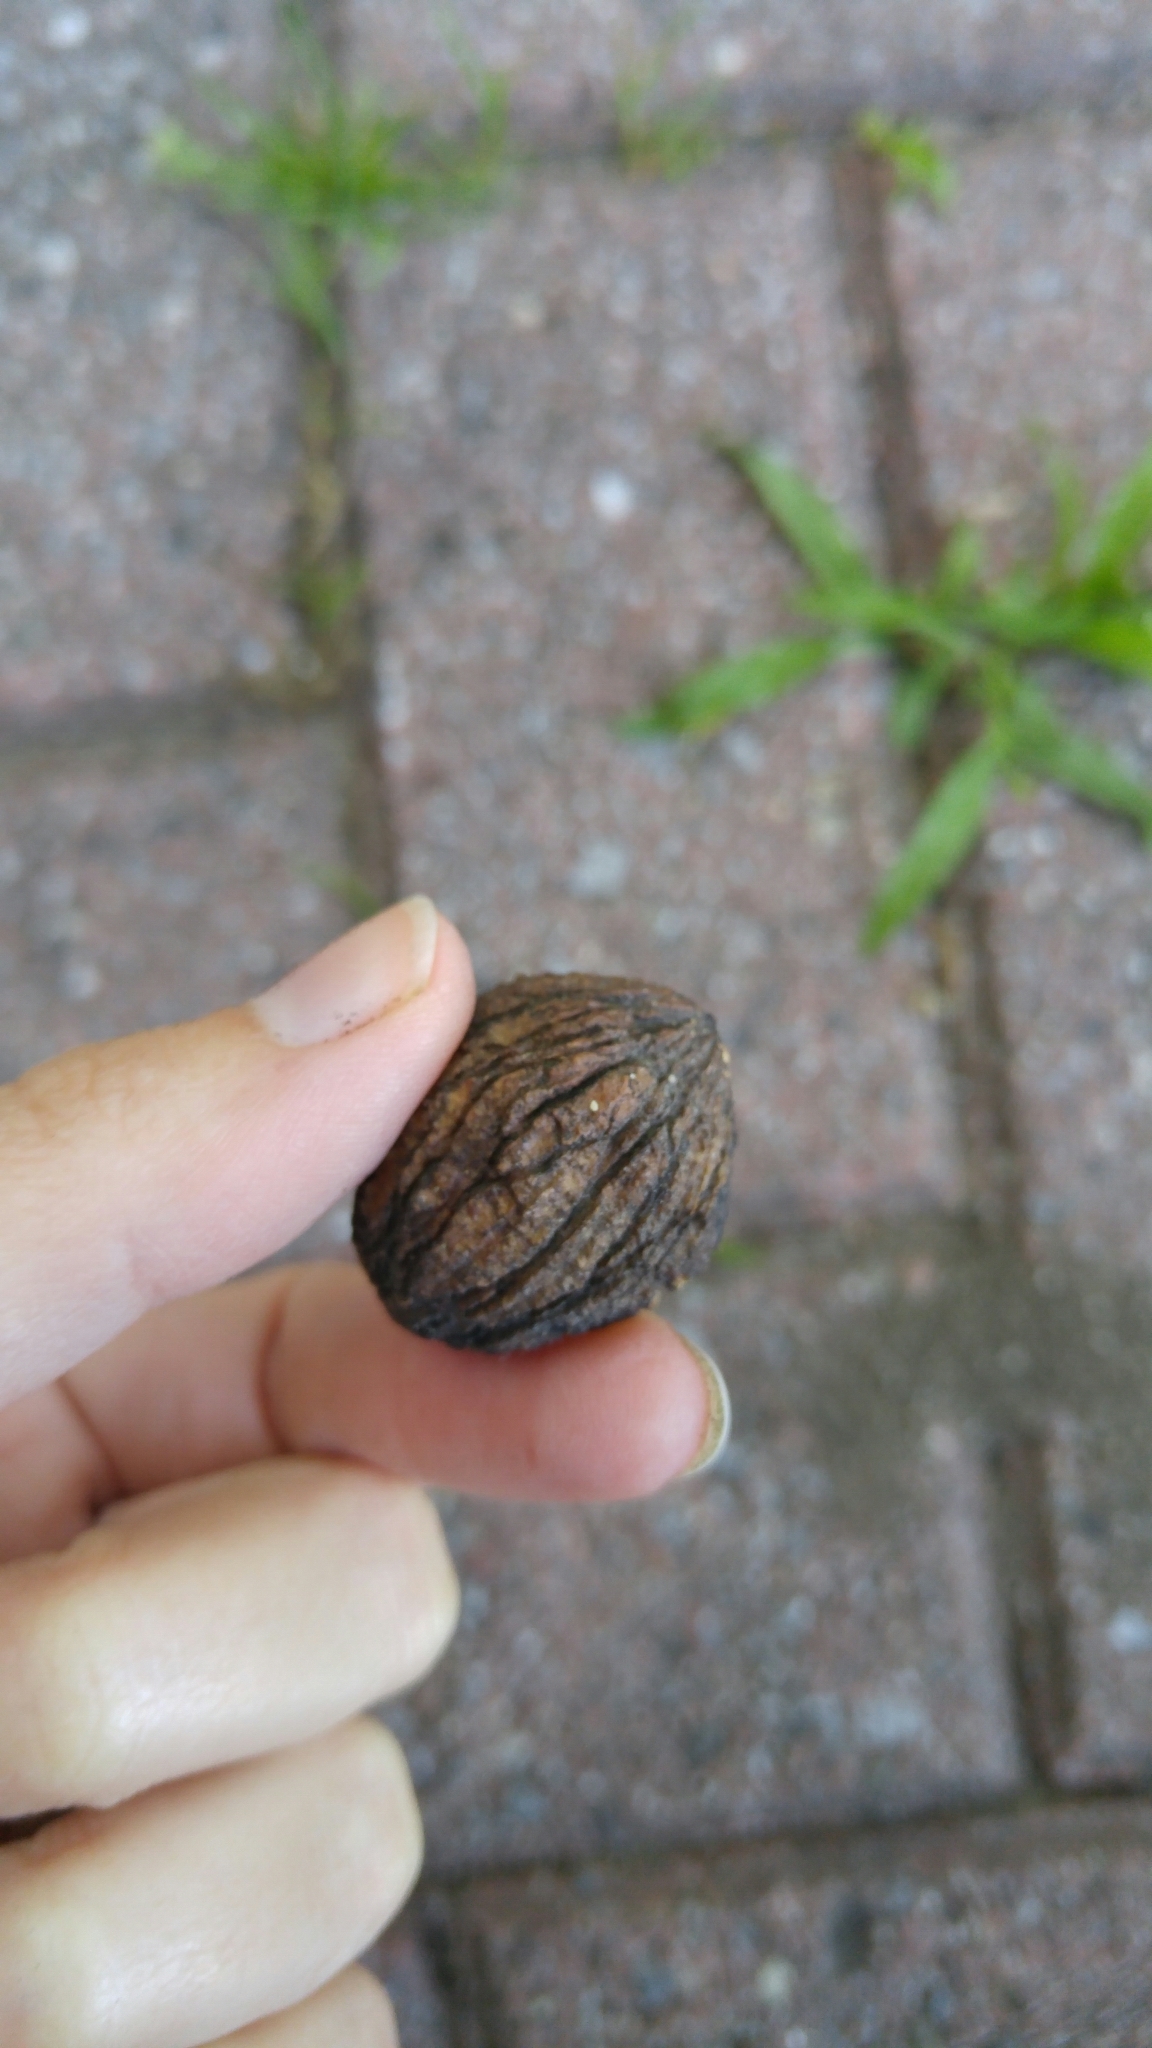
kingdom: Plantae
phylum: Tracheophyta
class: Magnoliopsida
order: Fagales
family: Juglandaceae
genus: Juglans
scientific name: Juglans nigra
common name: Black walnut
